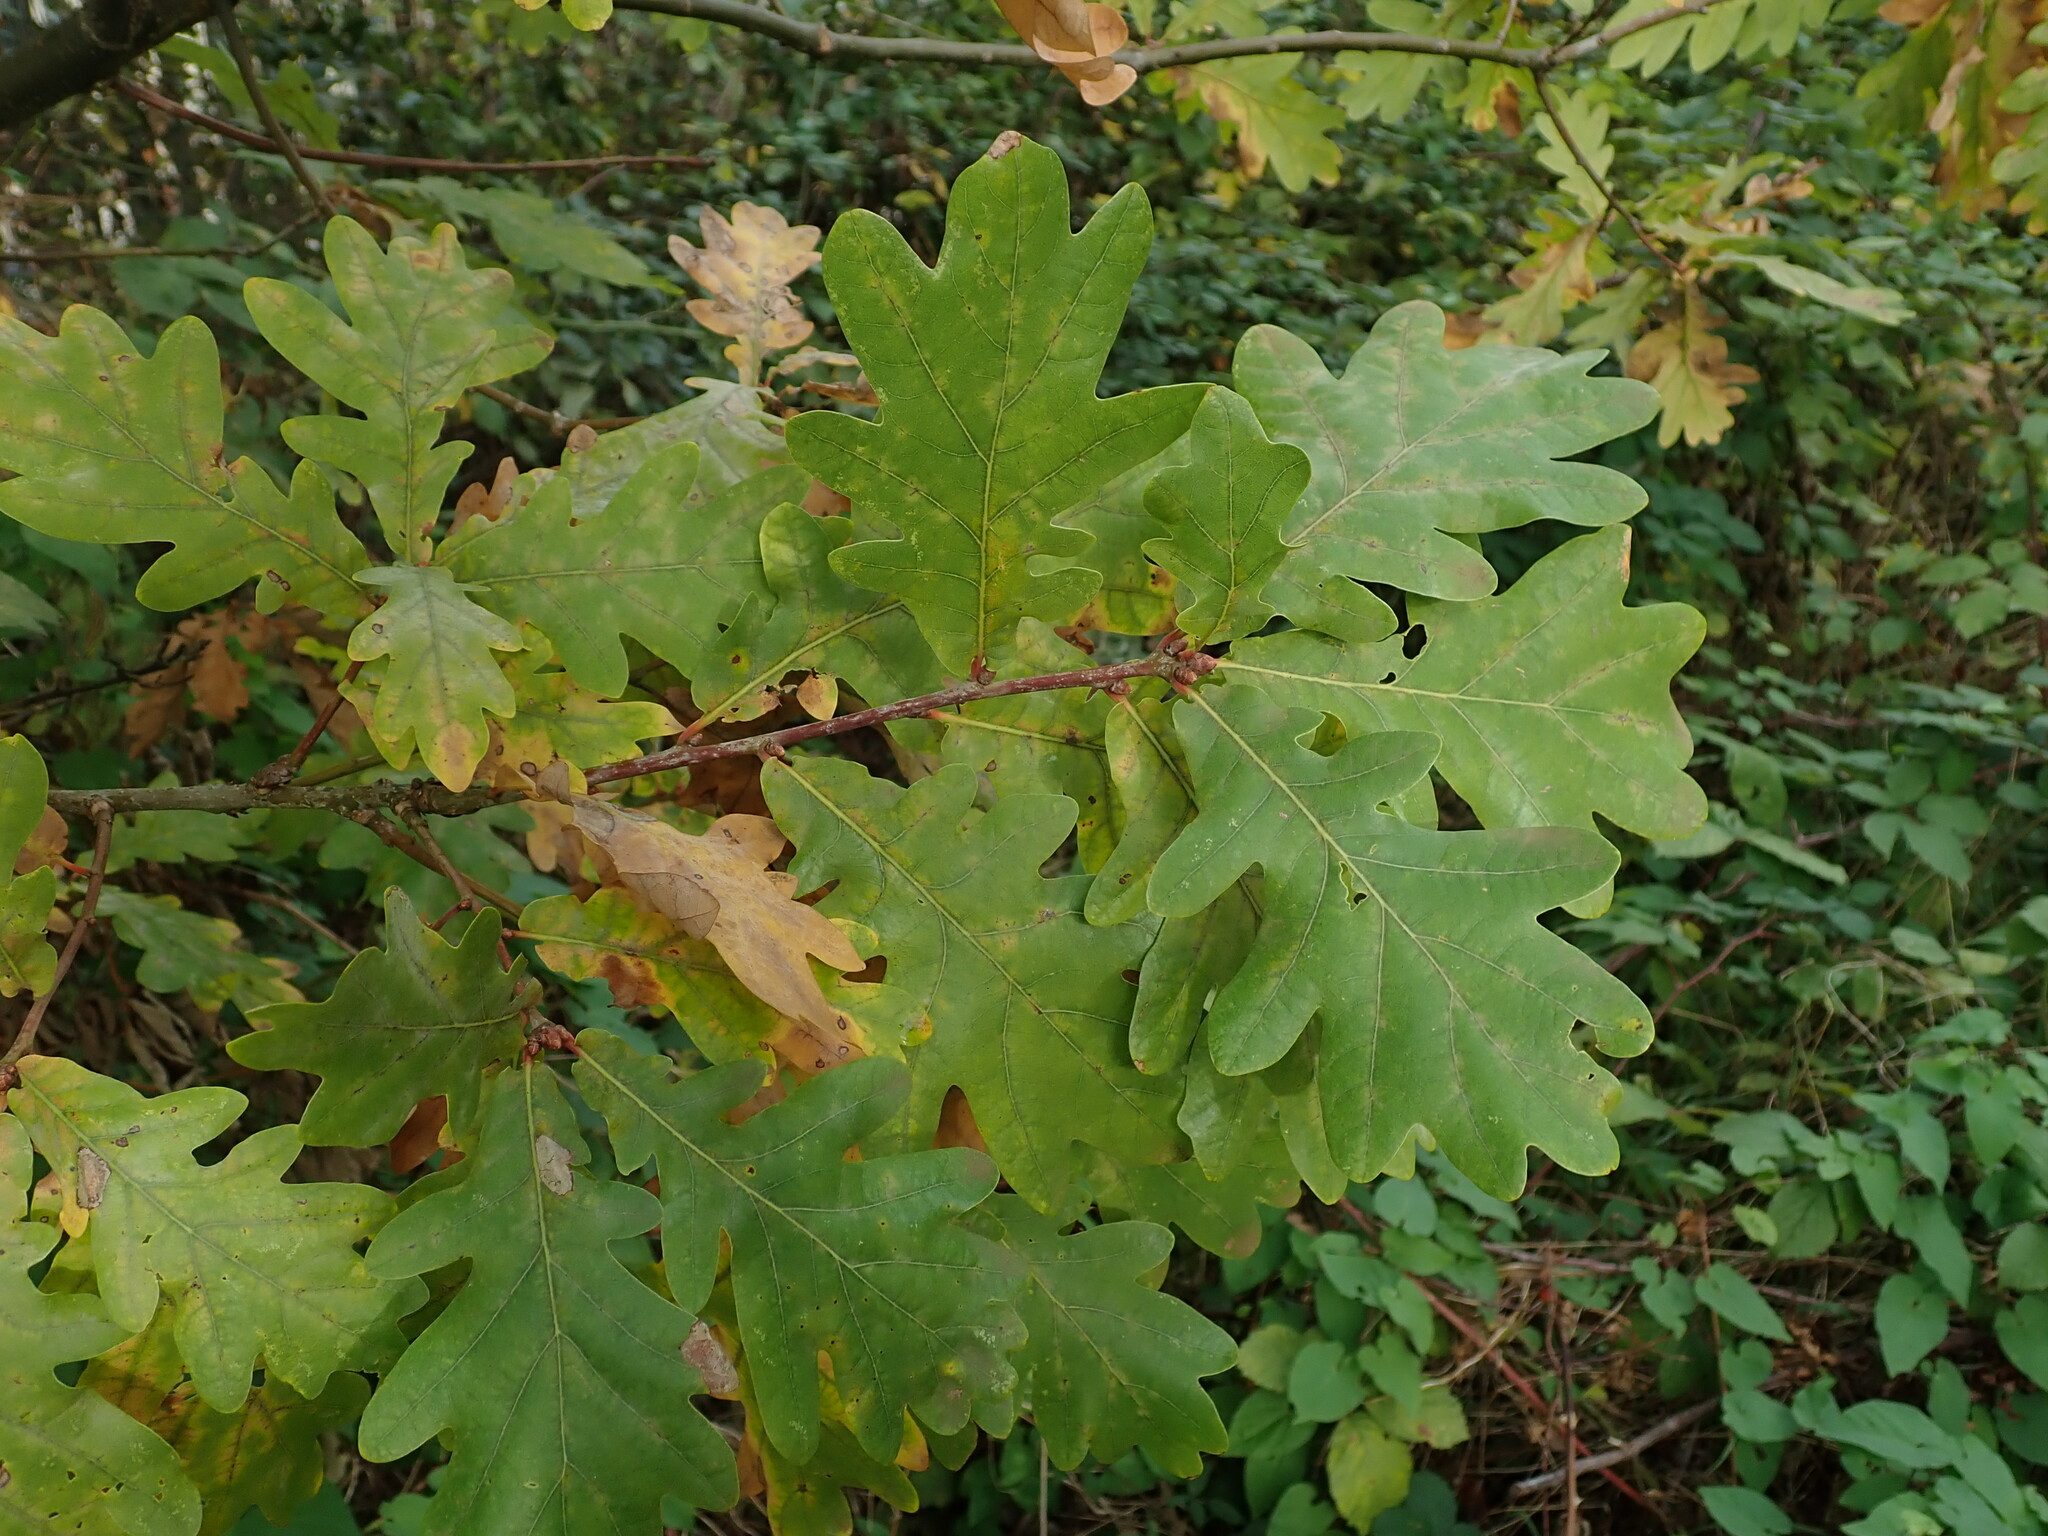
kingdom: Plantae
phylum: Tracheophyta
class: Magnoliopsida
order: Fagales
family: Fagaceae
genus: Quercus
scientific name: Quercus robur
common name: Pedunculate oak
